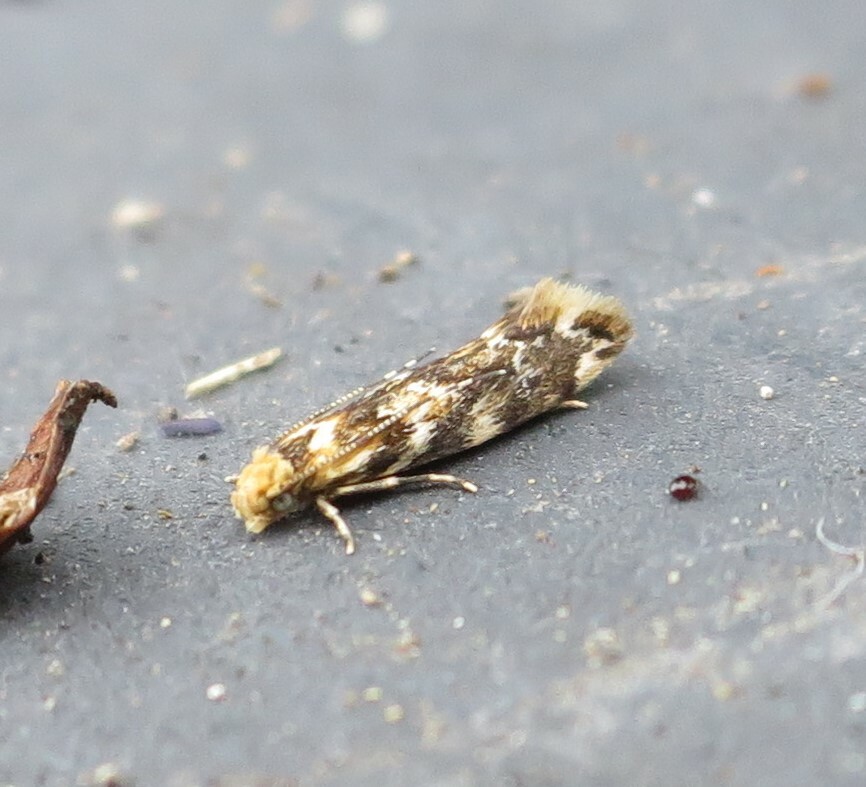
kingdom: Animalia
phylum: Arthropoda
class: Insecta
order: Lepidoptera
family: Dryadaulidae
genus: Dryadaula
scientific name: Dryadaula pactolia
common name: Cellar clothes
